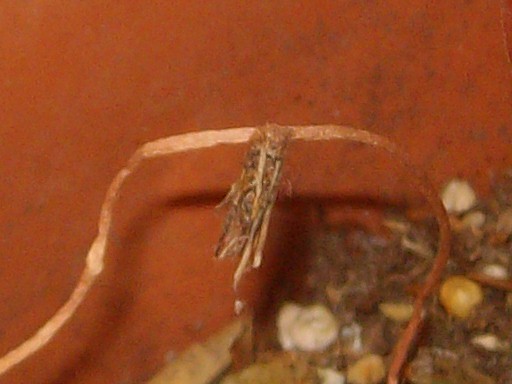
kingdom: Animalia
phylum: Arthropoda
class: Insecta
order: Lepidoptera
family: Psychidae
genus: Psyche
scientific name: Psyche casta
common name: Common sweep
